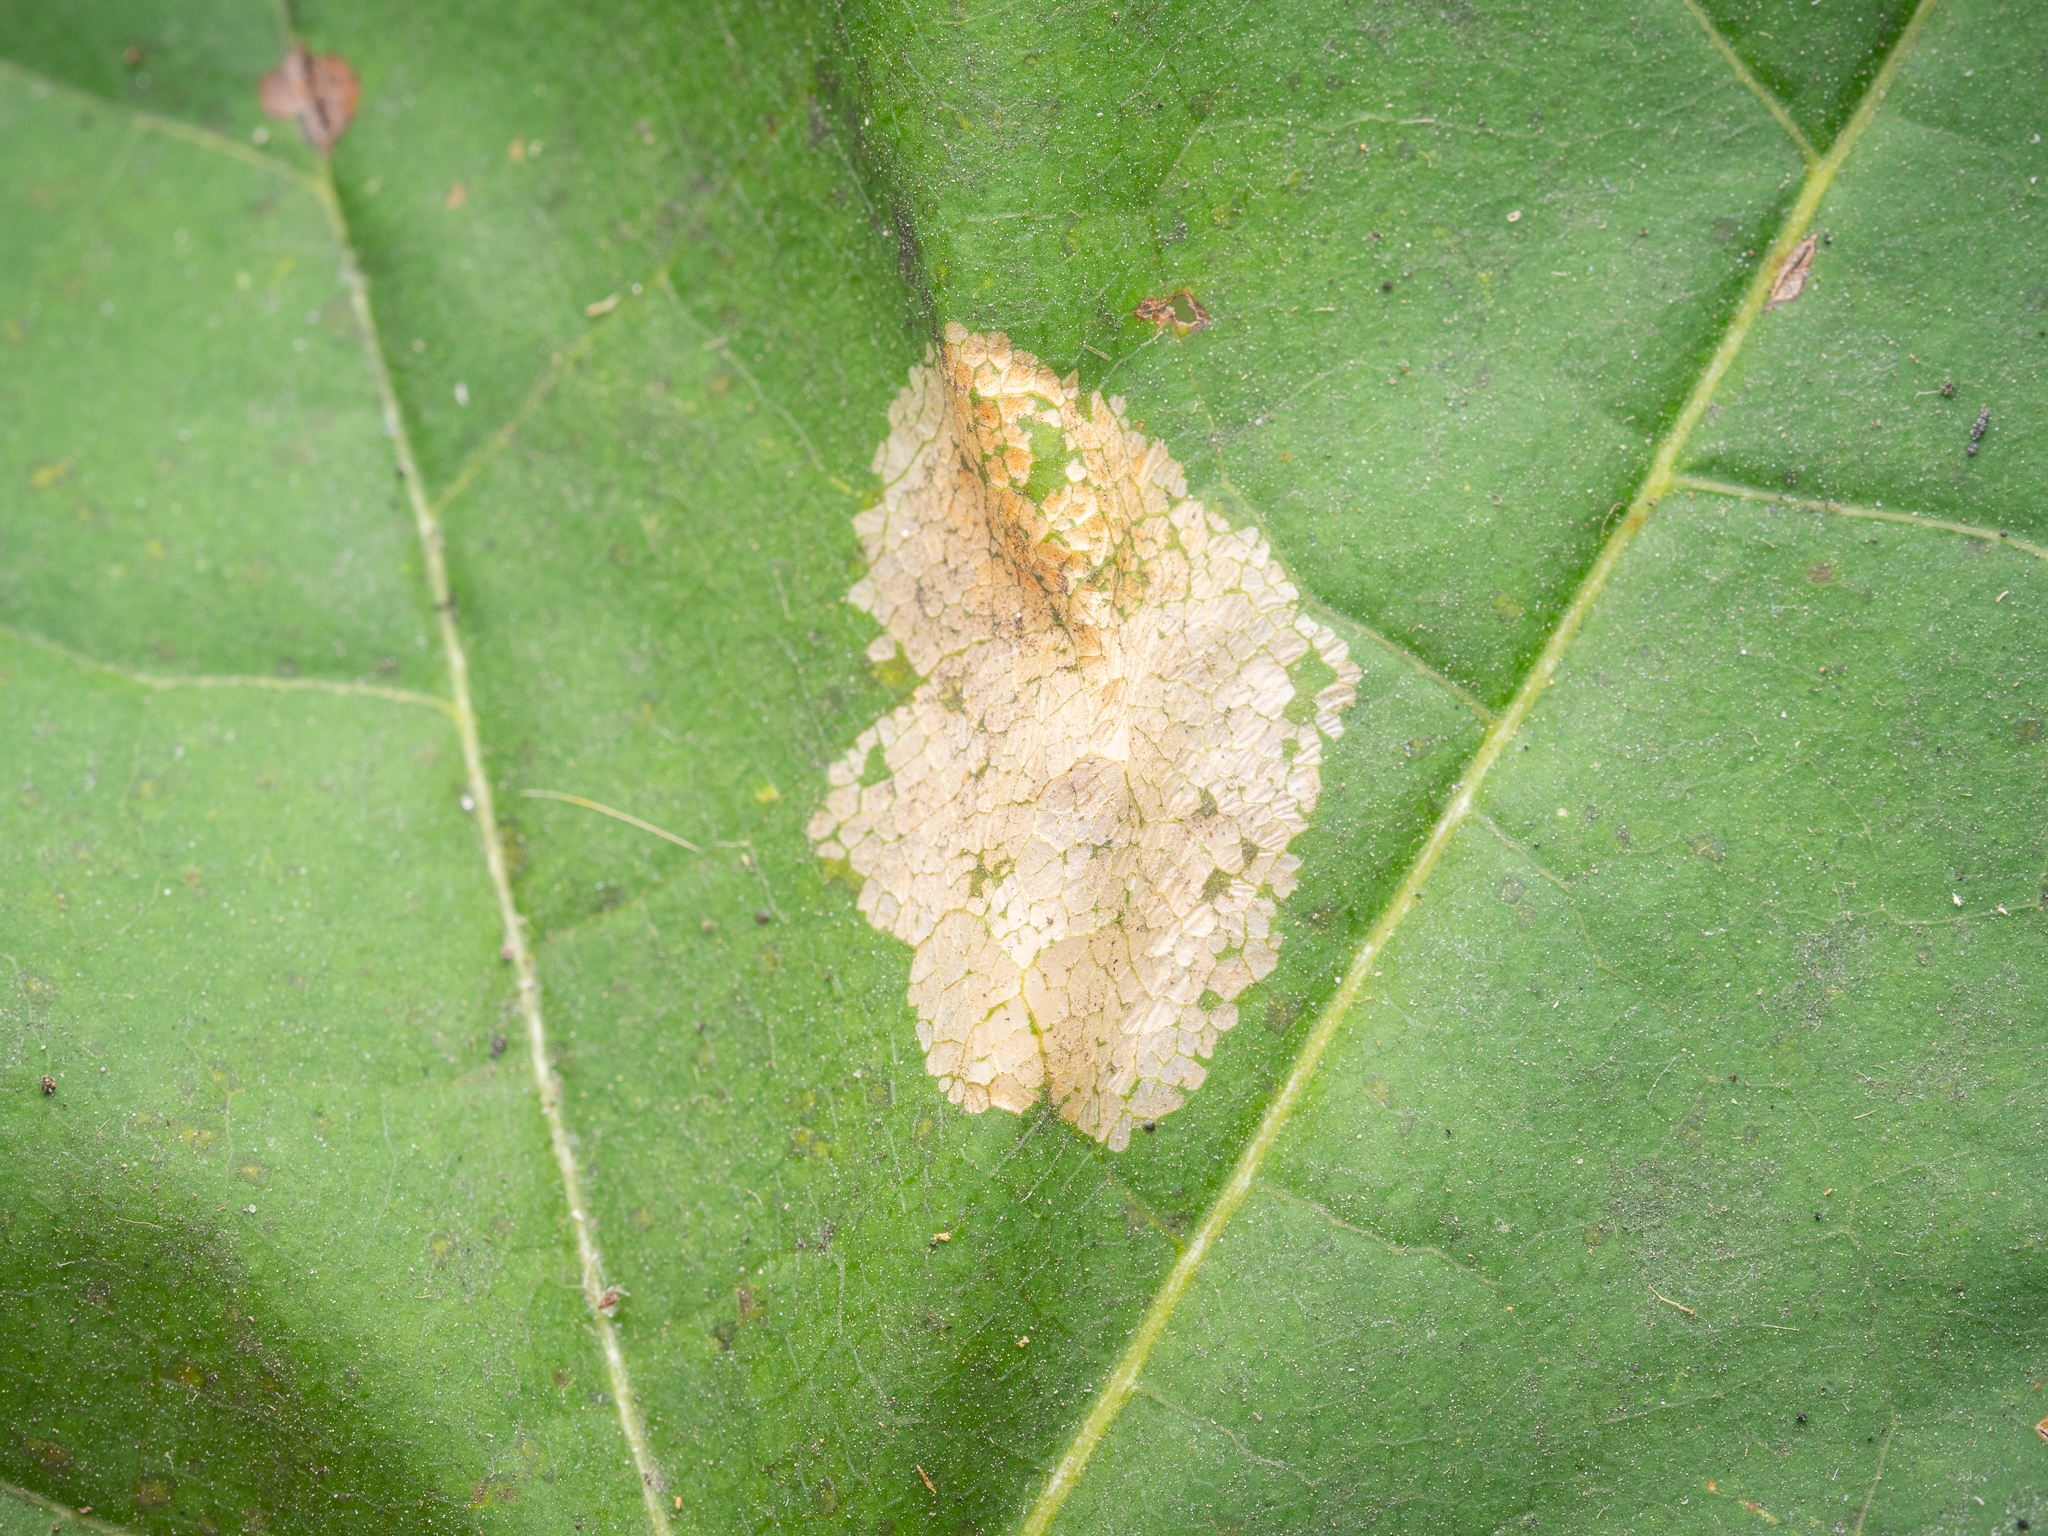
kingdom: Animalia
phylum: Arthropoda
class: Insecta
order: Lepidoptera
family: Gracillariidae
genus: Phyllonorycter
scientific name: Phyllonorycter joannisi
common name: White-bodied midget
